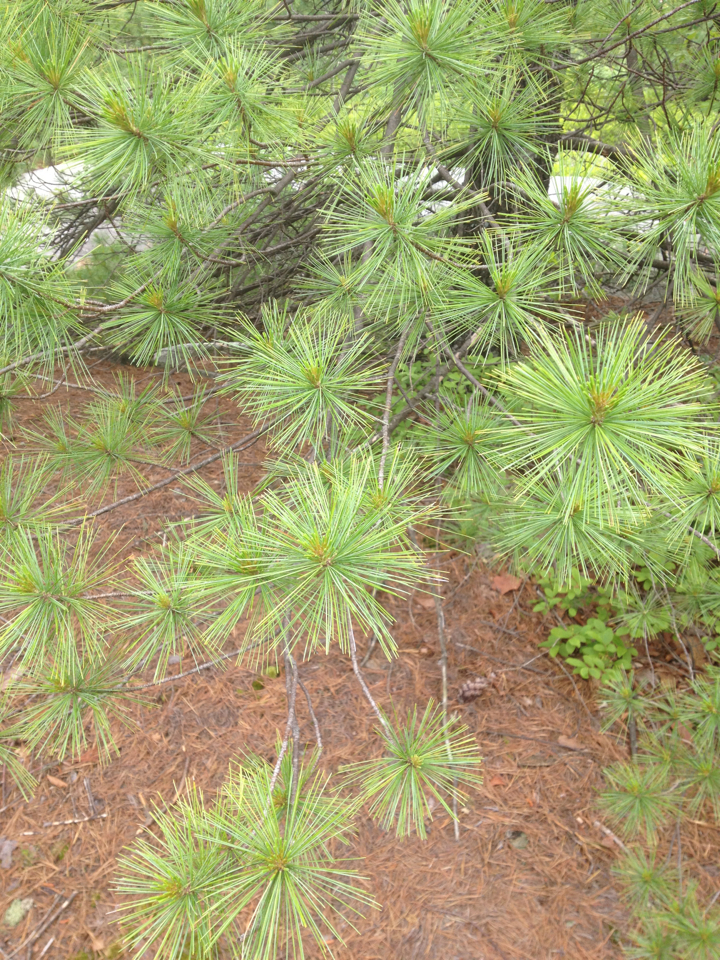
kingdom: Plantae
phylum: Tracheophyta
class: Pinopsida
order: Pinales
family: Pinaceae
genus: Pinus
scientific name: Pinus strobus
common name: Weymouth pine
